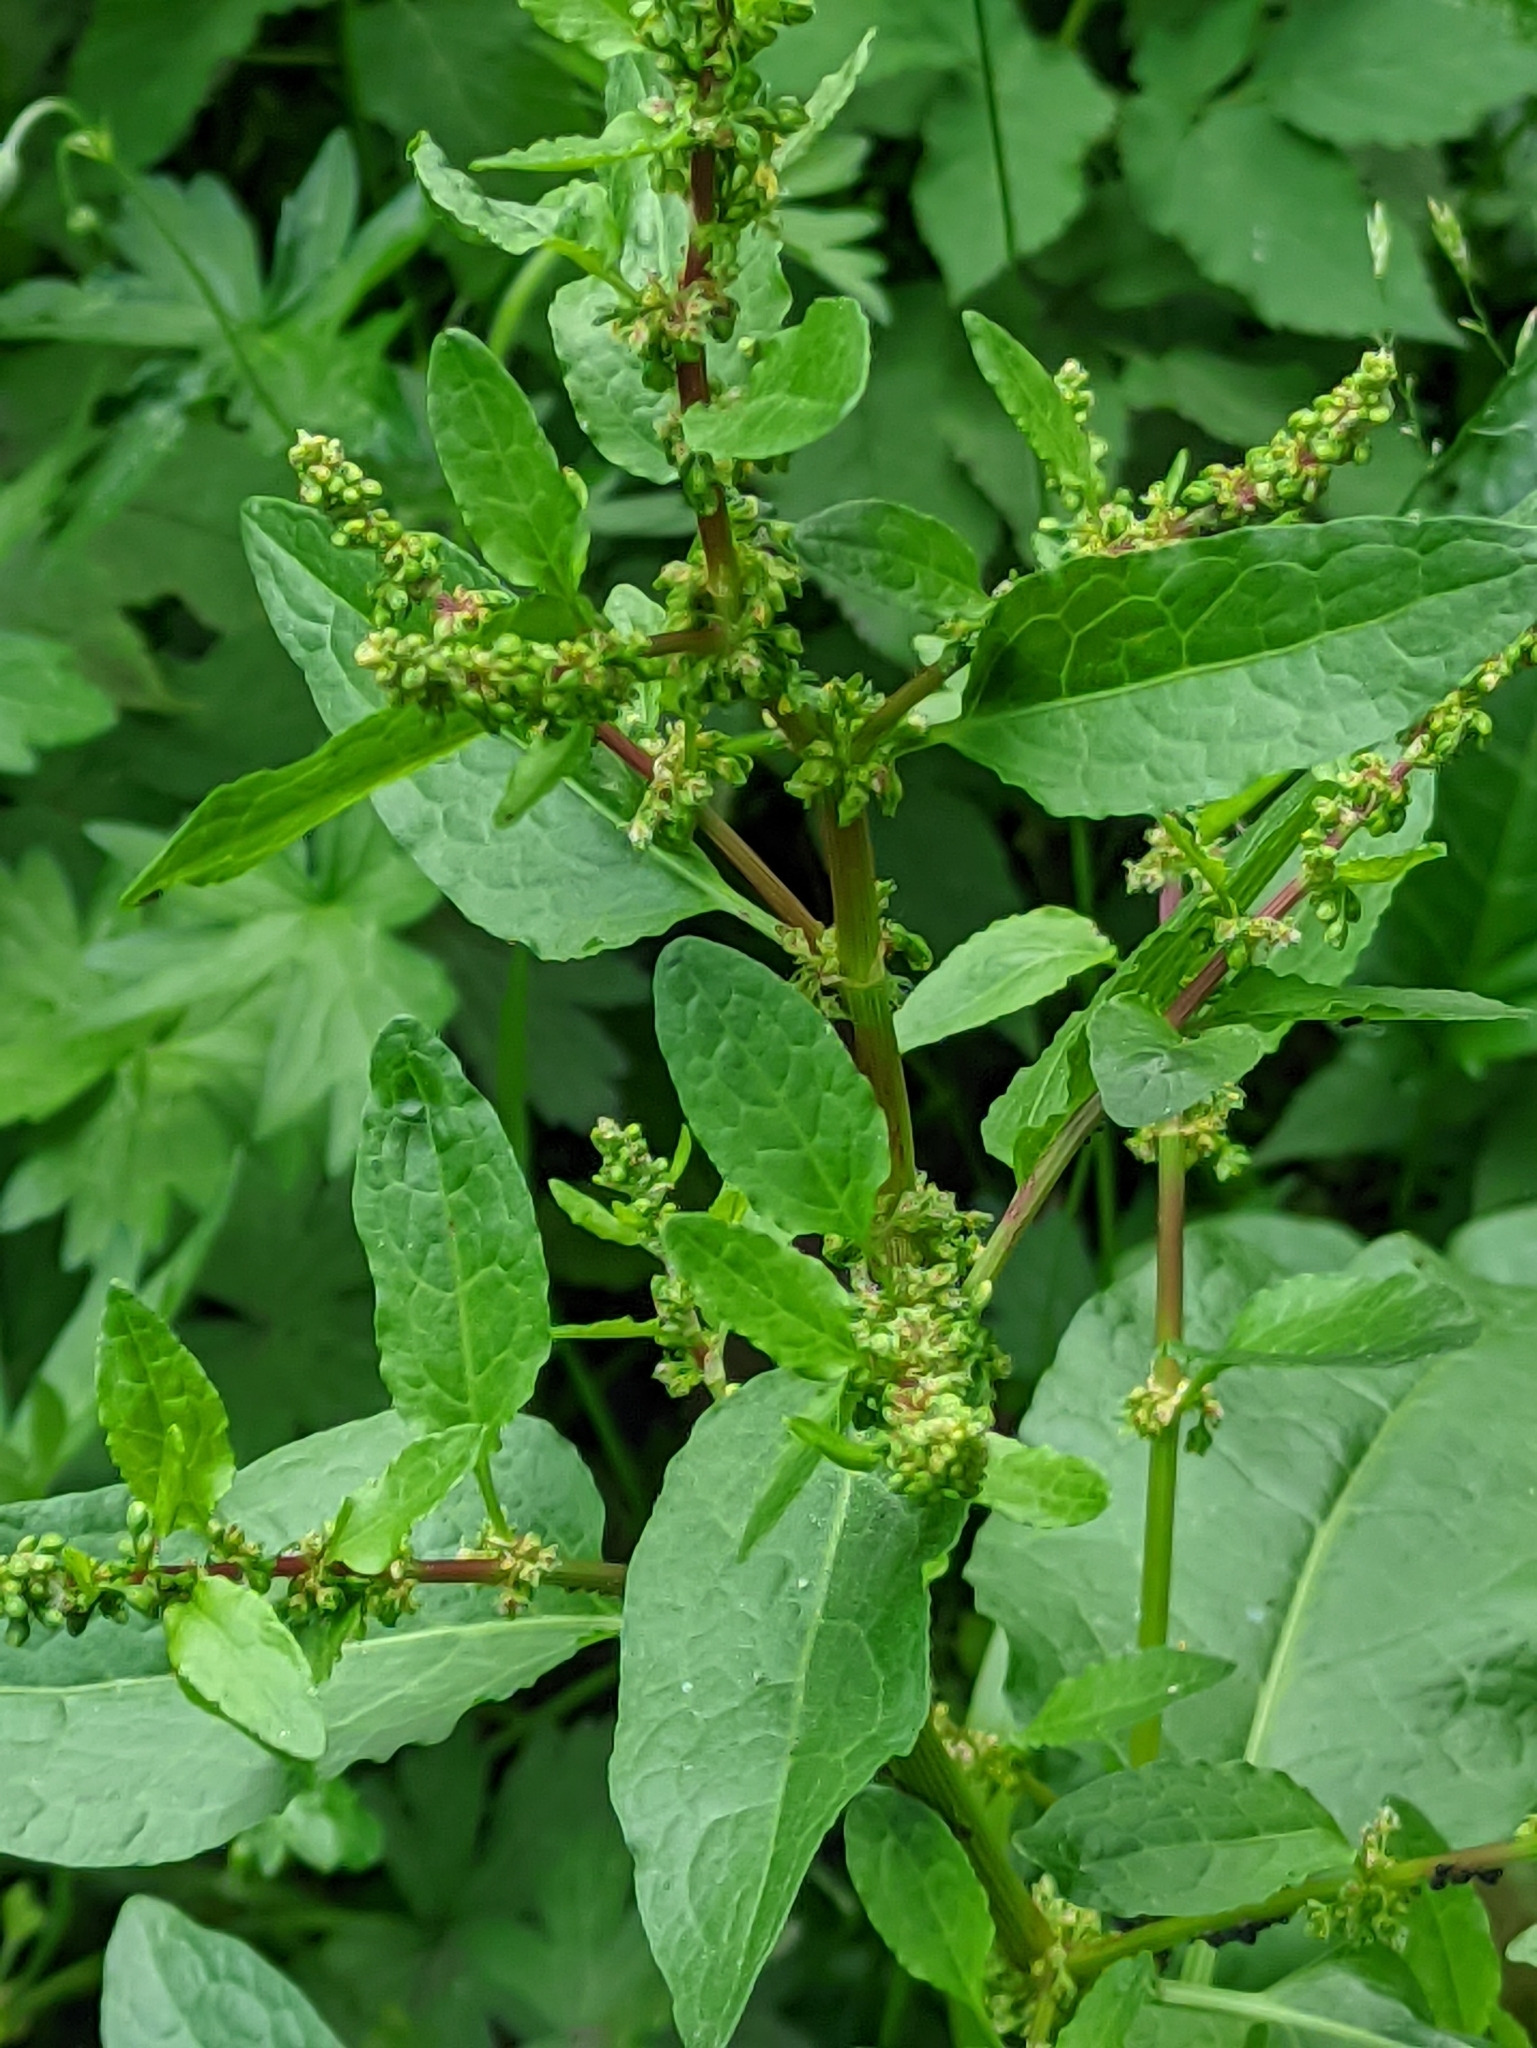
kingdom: Plantae
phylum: Tracheophyta
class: Magnoliopsida
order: Caryophyllales
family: Polygonaceae
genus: Rumex
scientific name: Rumex obtusifolius
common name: Bitter dock
